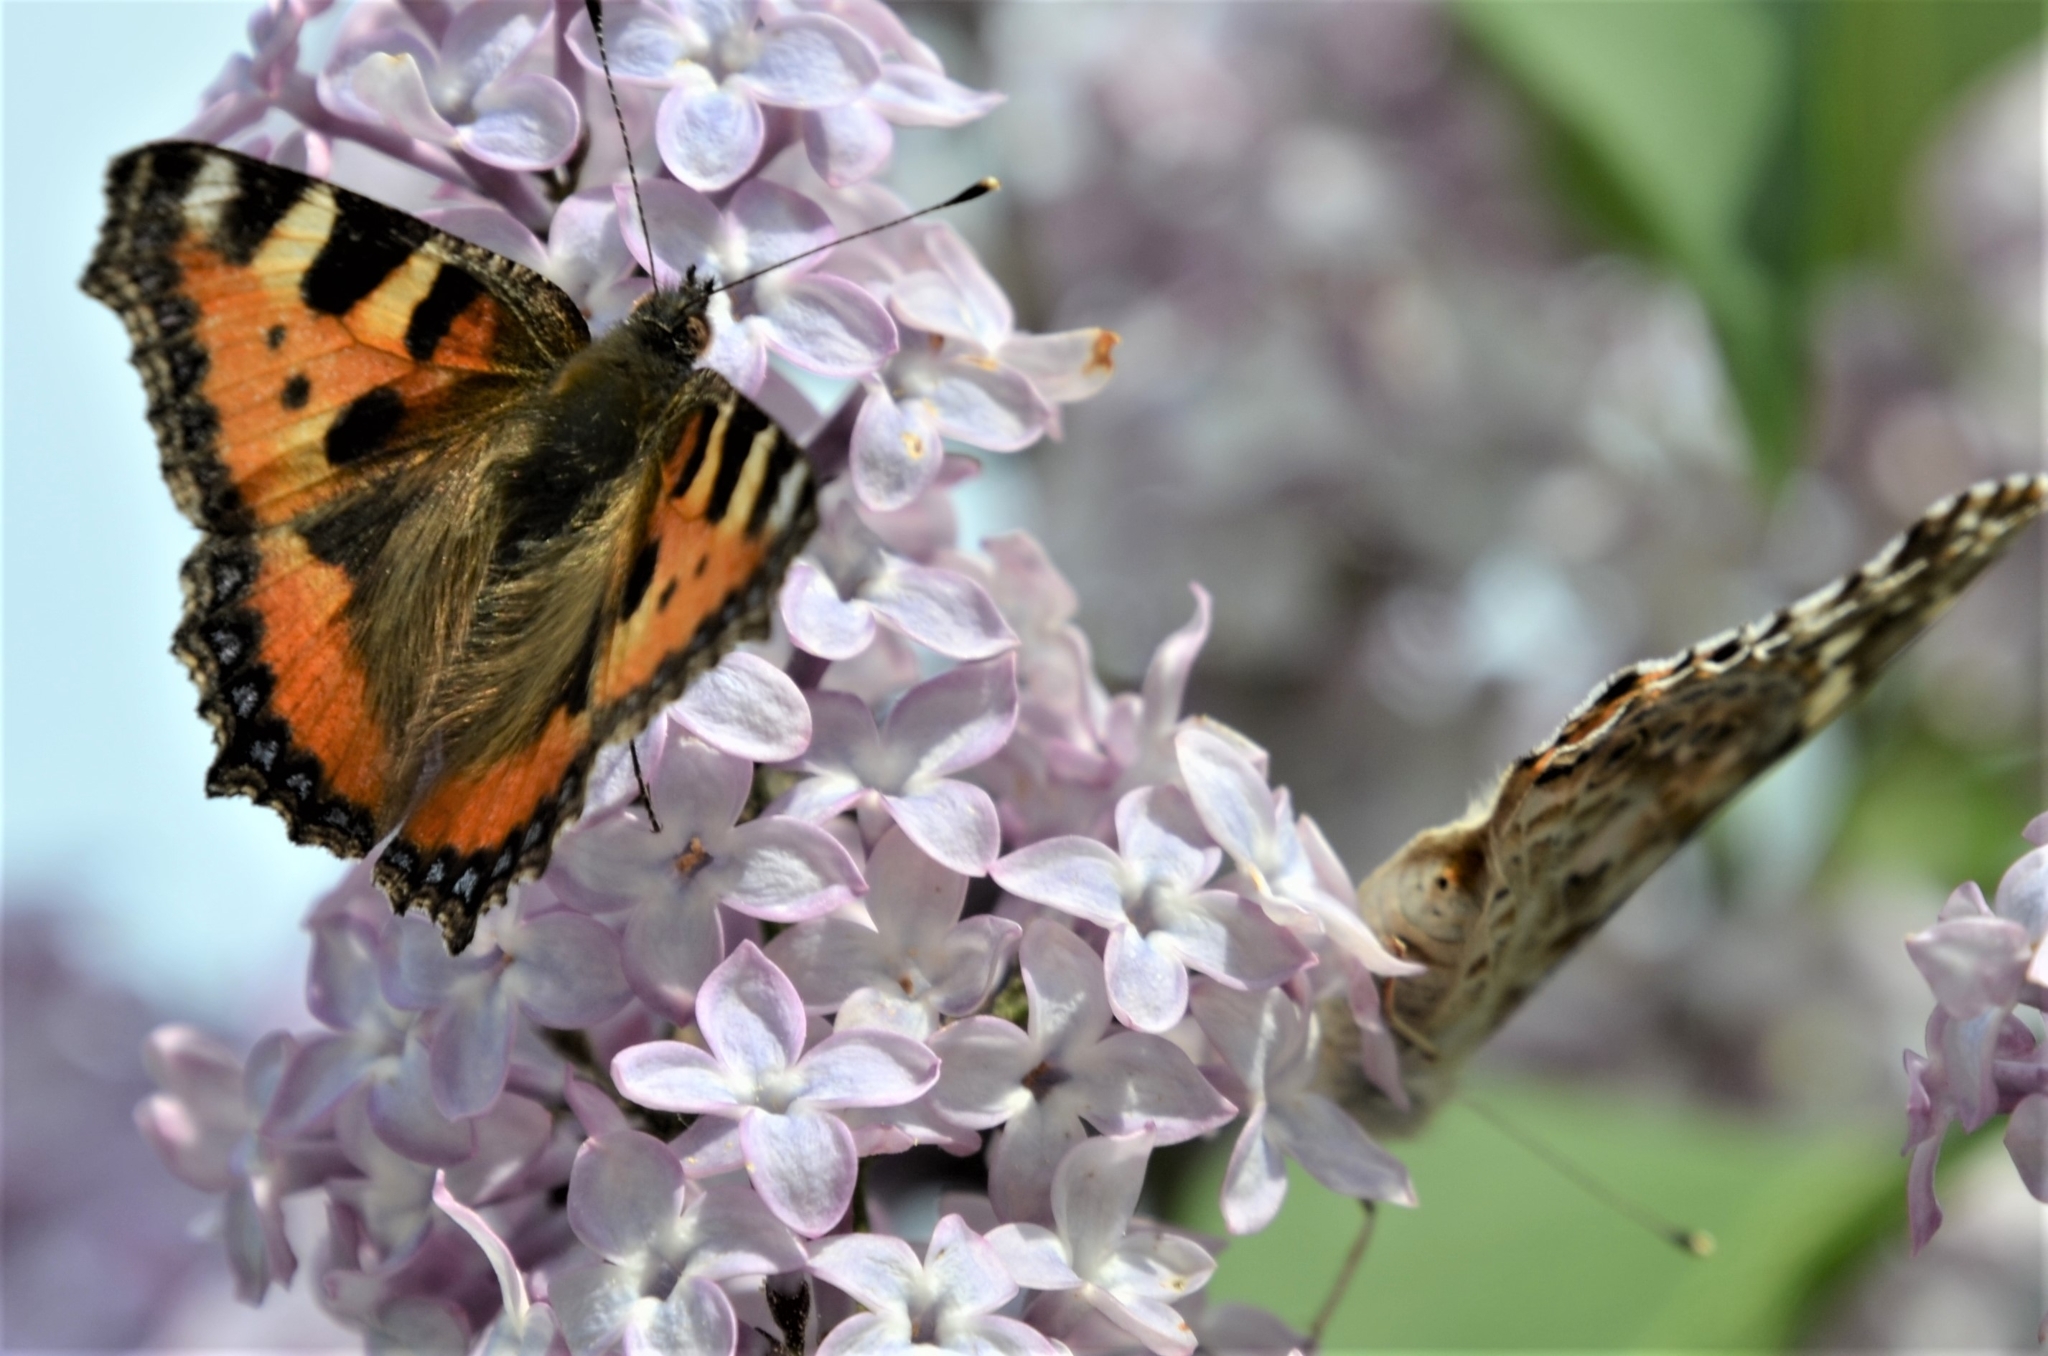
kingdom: Animalia
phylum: Arthropoda
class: Insecta
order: Lepidoptera
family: Nymphalidae
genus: Aglais
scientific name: Aglais urticae
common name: Small tortoiseshell
